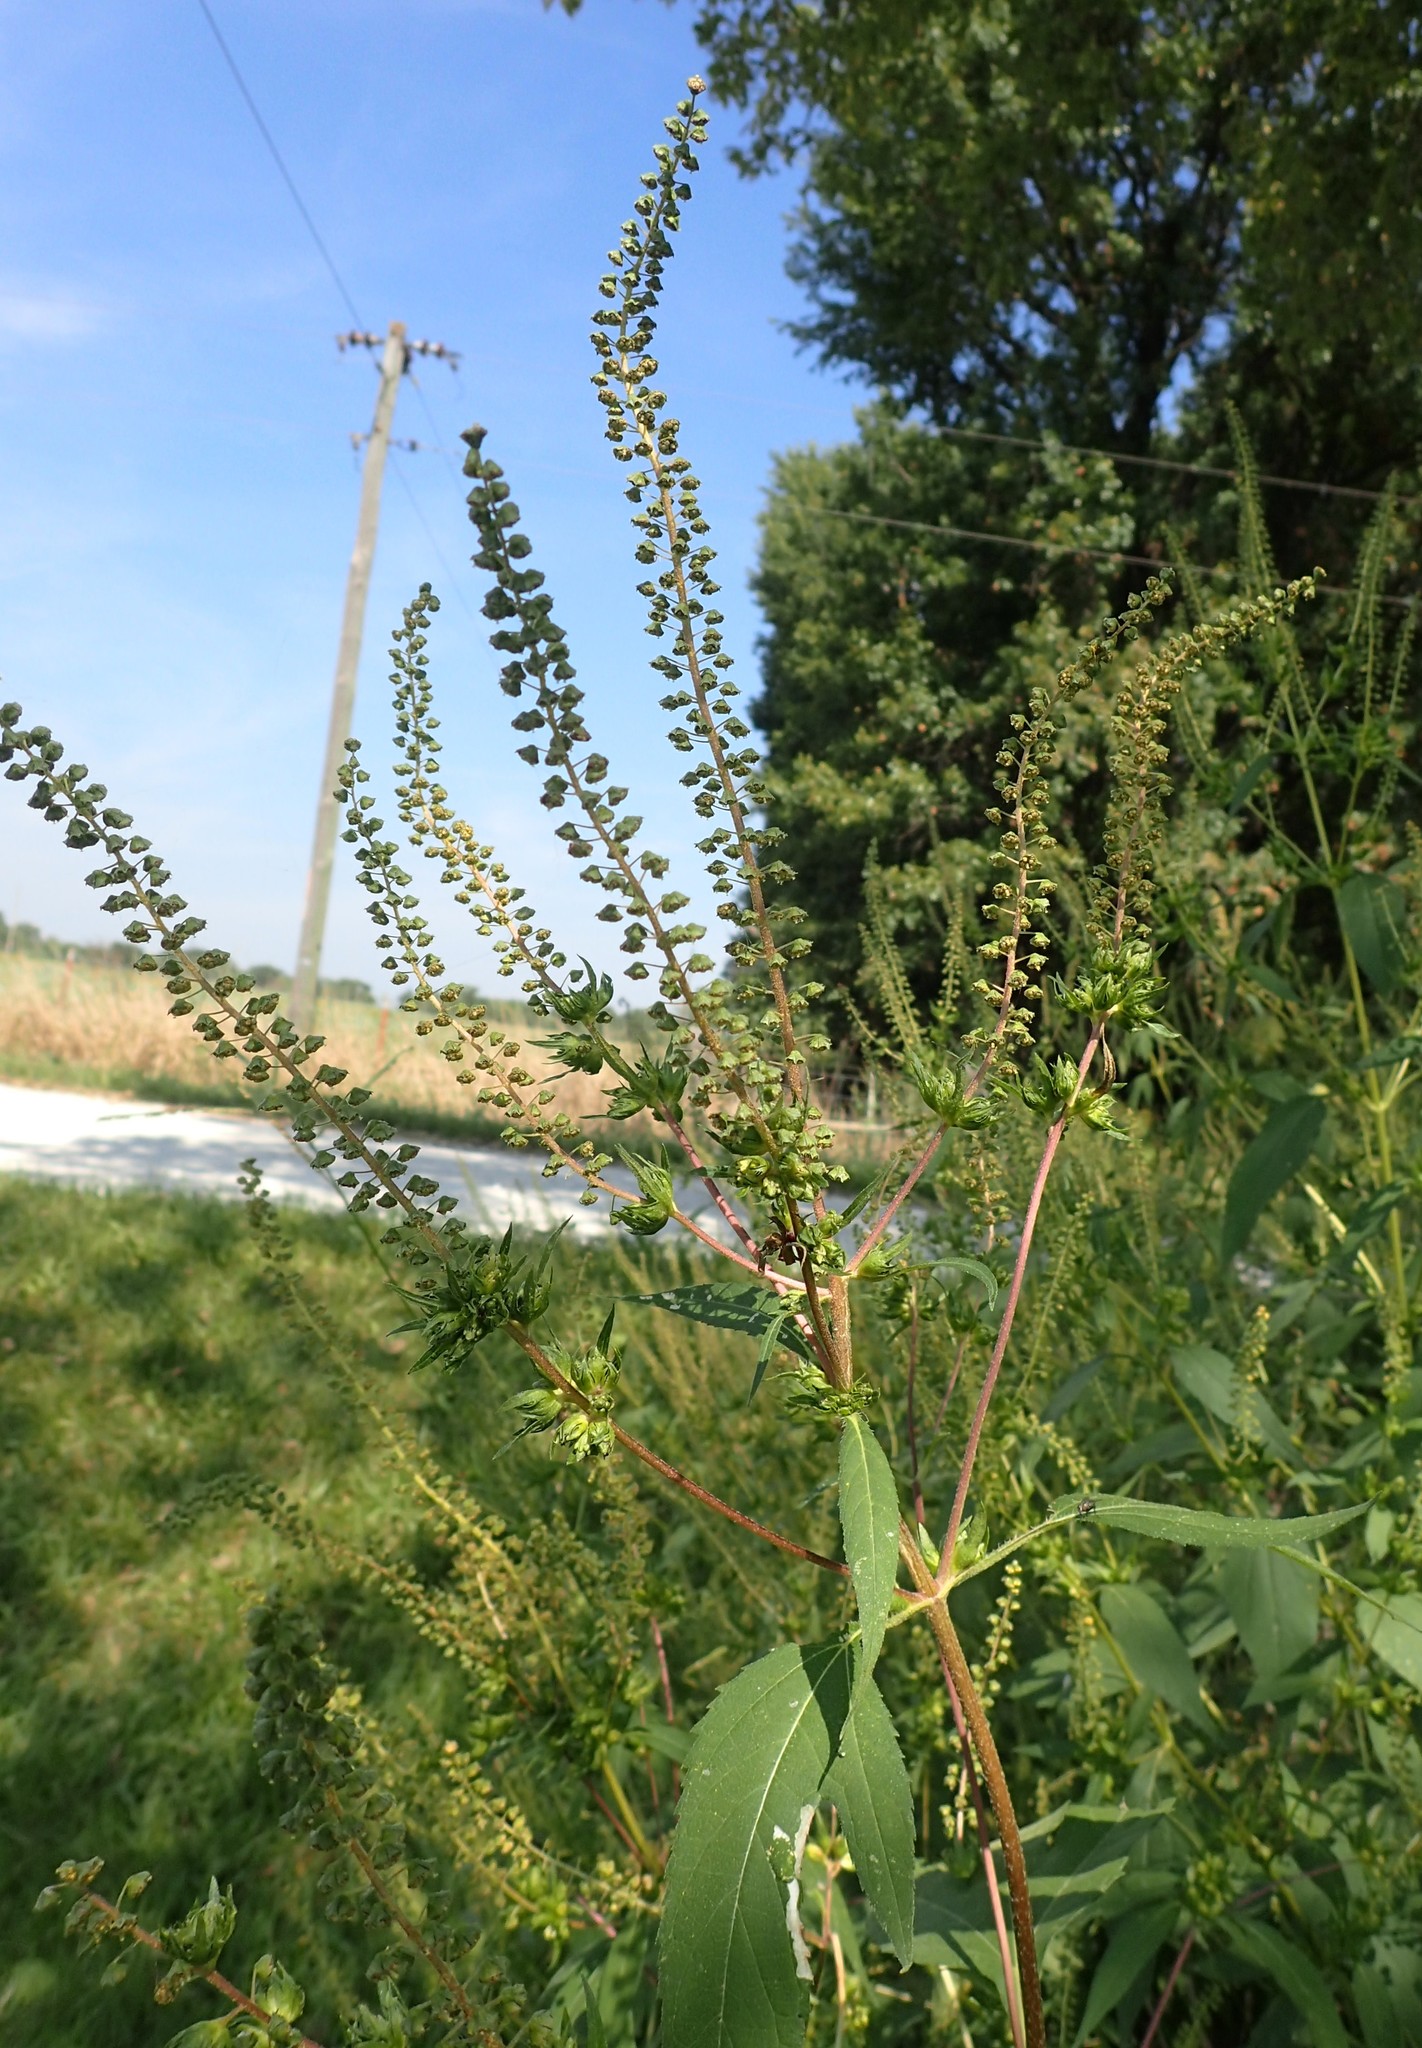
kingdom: Plantae
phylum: Tracheophyta
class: Magnoliopsida
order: Asterales
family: Asteraceae
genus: Ambrosia
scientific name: Ambrosia trifida
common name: Giant ragweed
